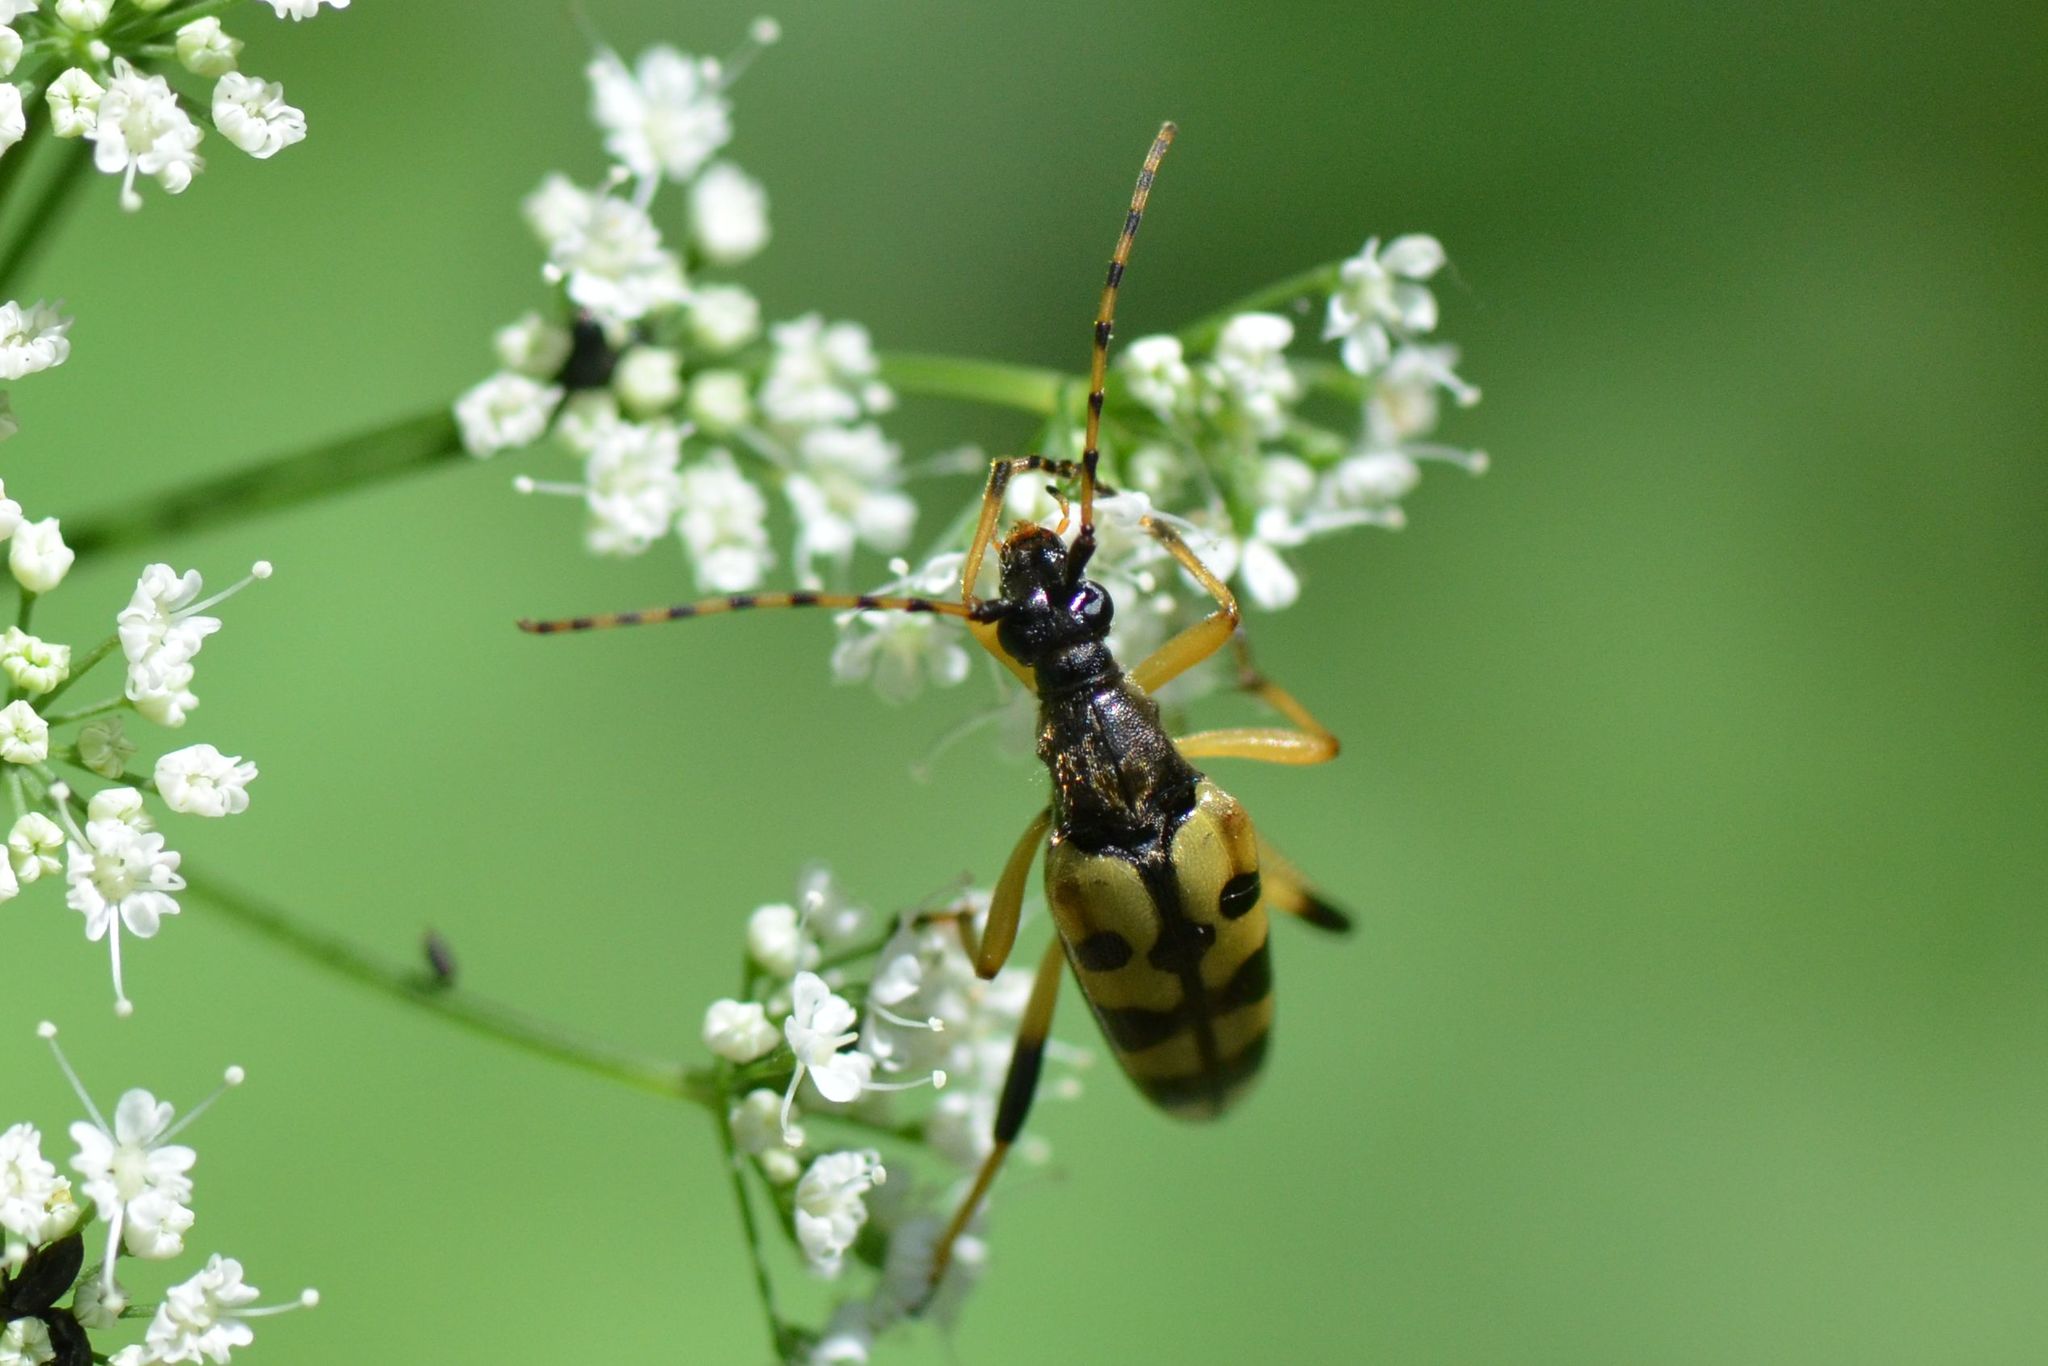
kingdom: Animalia
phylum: Arthropoda
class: Insecta
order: Coleoptera
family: Cerambycidae
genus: Rutpela
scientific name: Rutpela maculata
